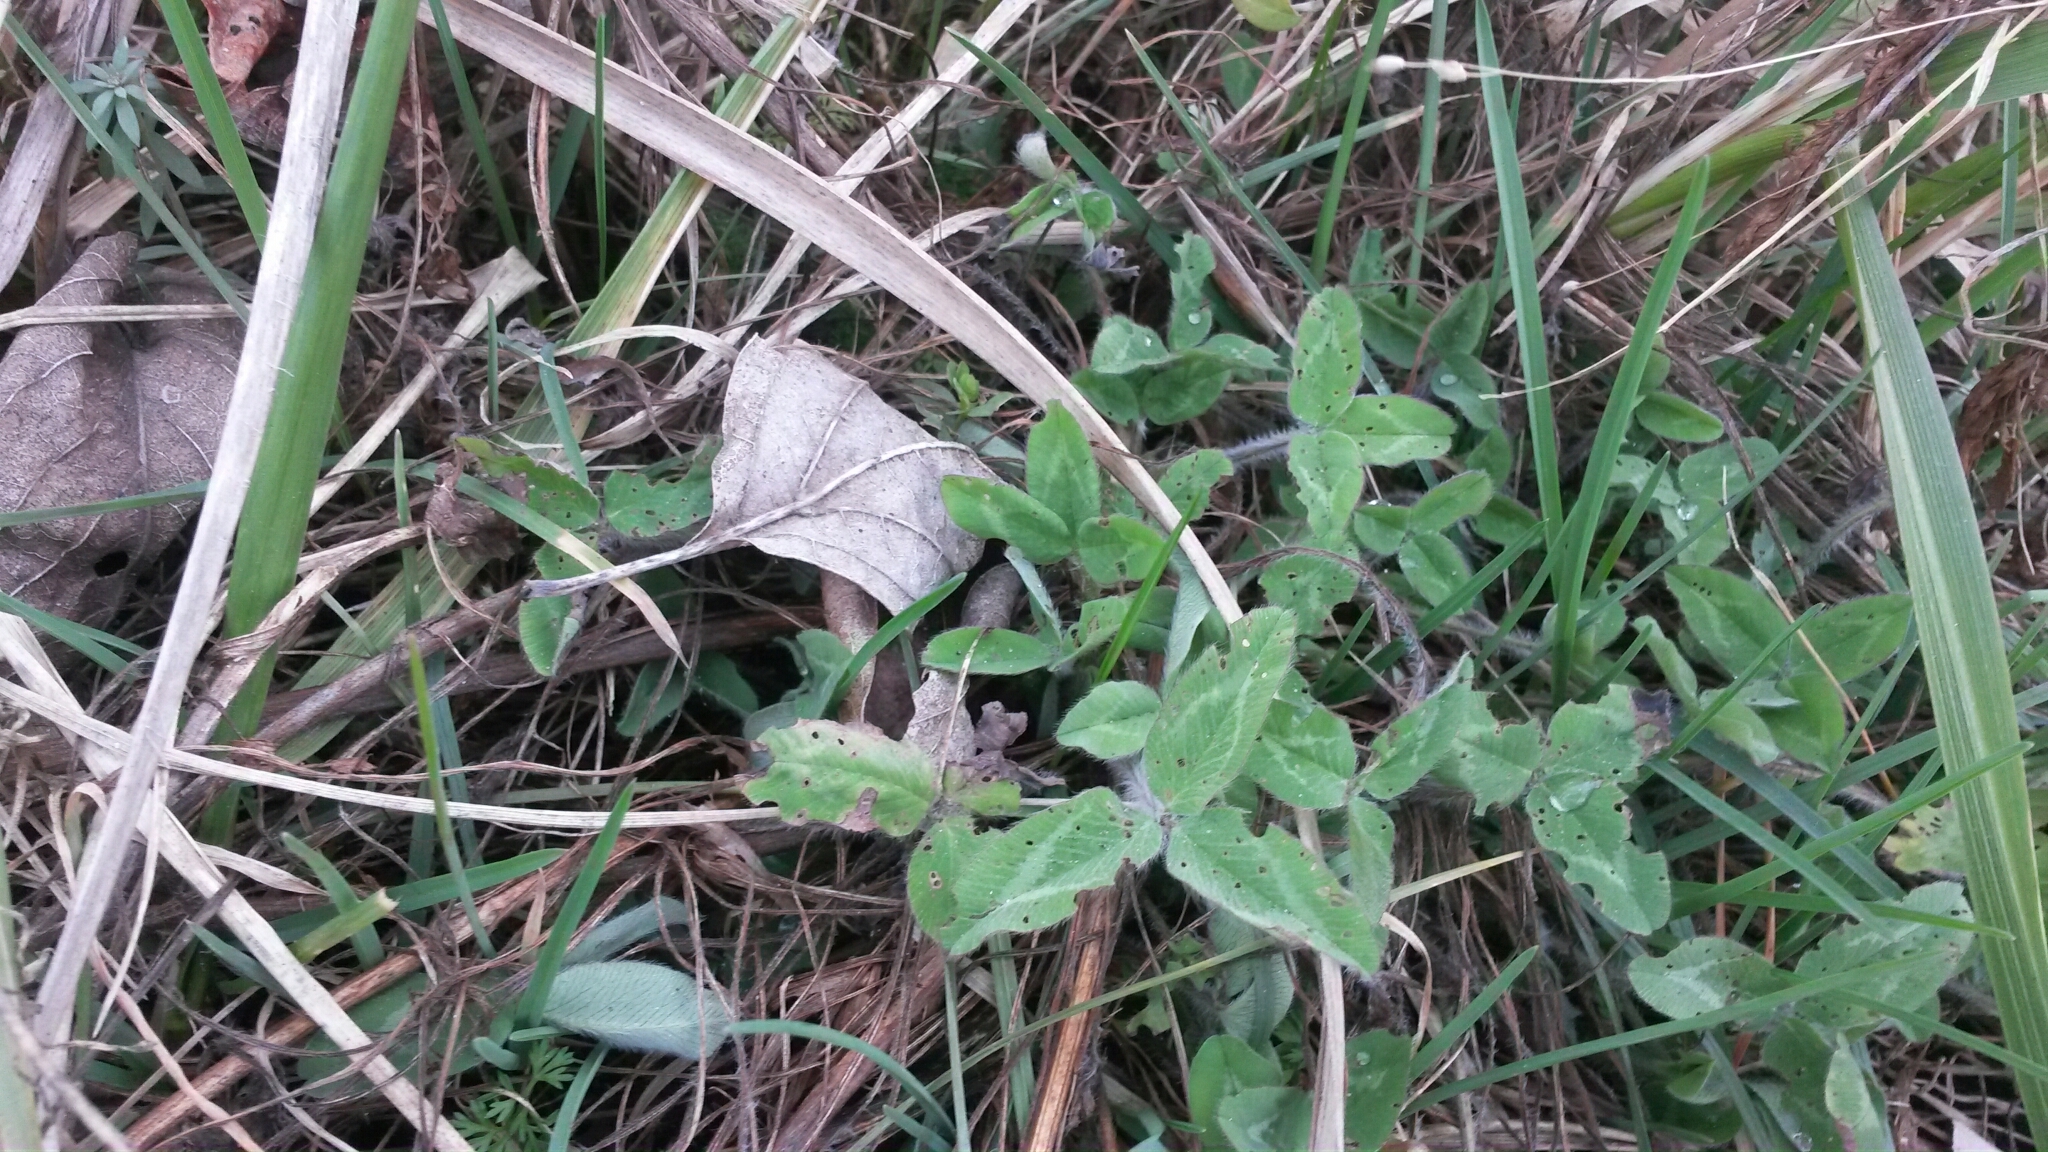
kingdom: Plantae
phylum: Tracheophyta
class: Magnoliopsida
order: Fabales
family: Fabaceae
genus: Trifolium
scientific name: Trifolium pratense
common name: Red clover
